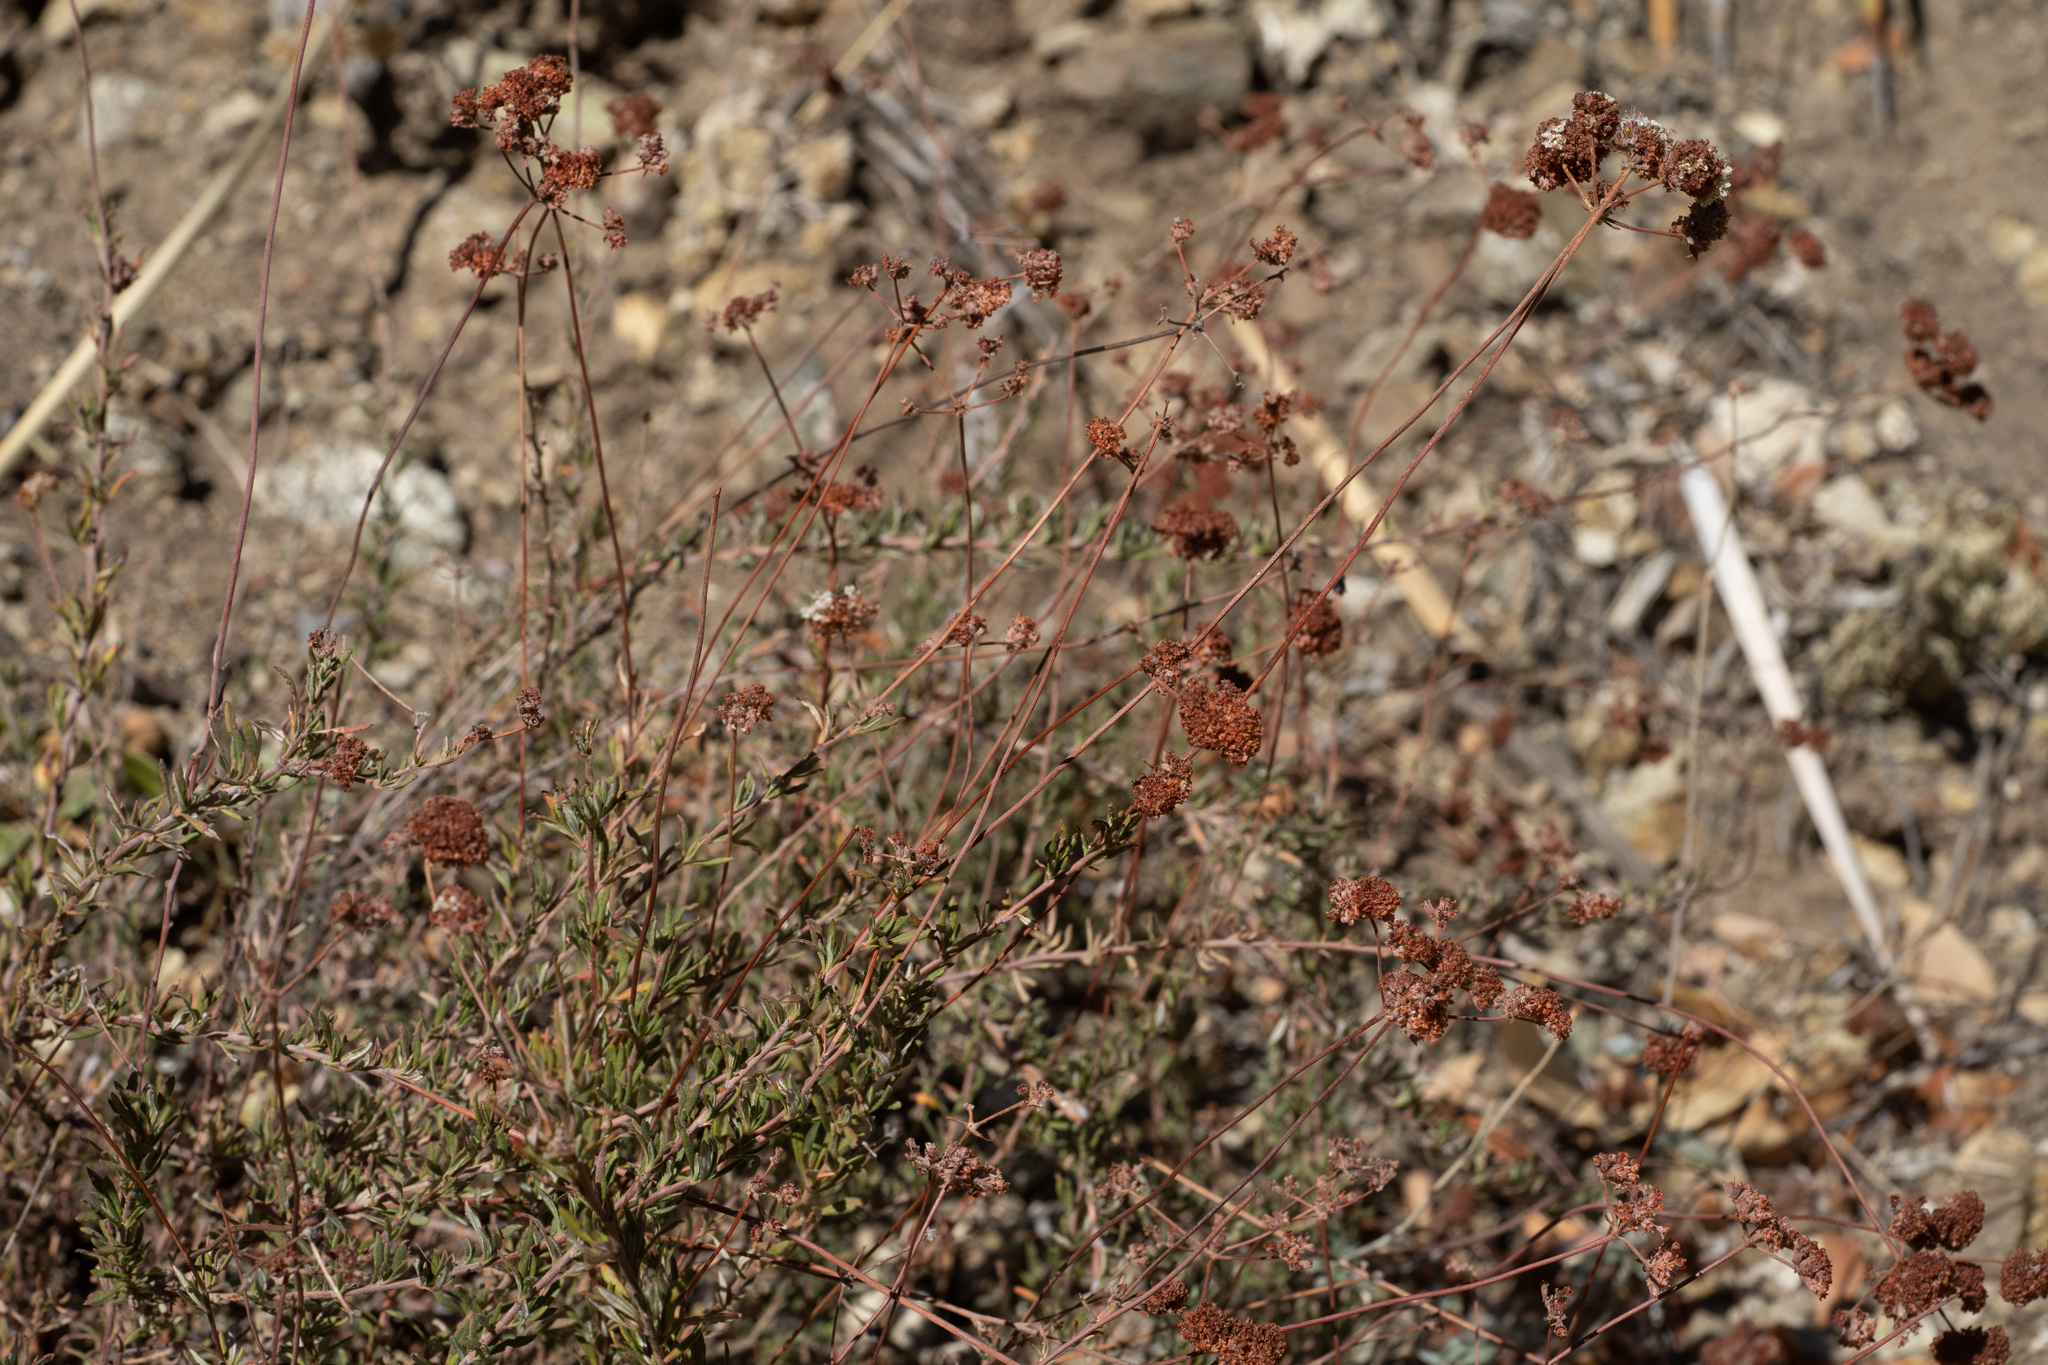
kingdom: Plantae
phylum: Tracheophyta
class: Magnoliopsida
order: Caryophyllales
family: Polygonaceae
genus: Eriogonum
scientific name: Eriogonum fasciculatum
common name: California wild buckwheat
